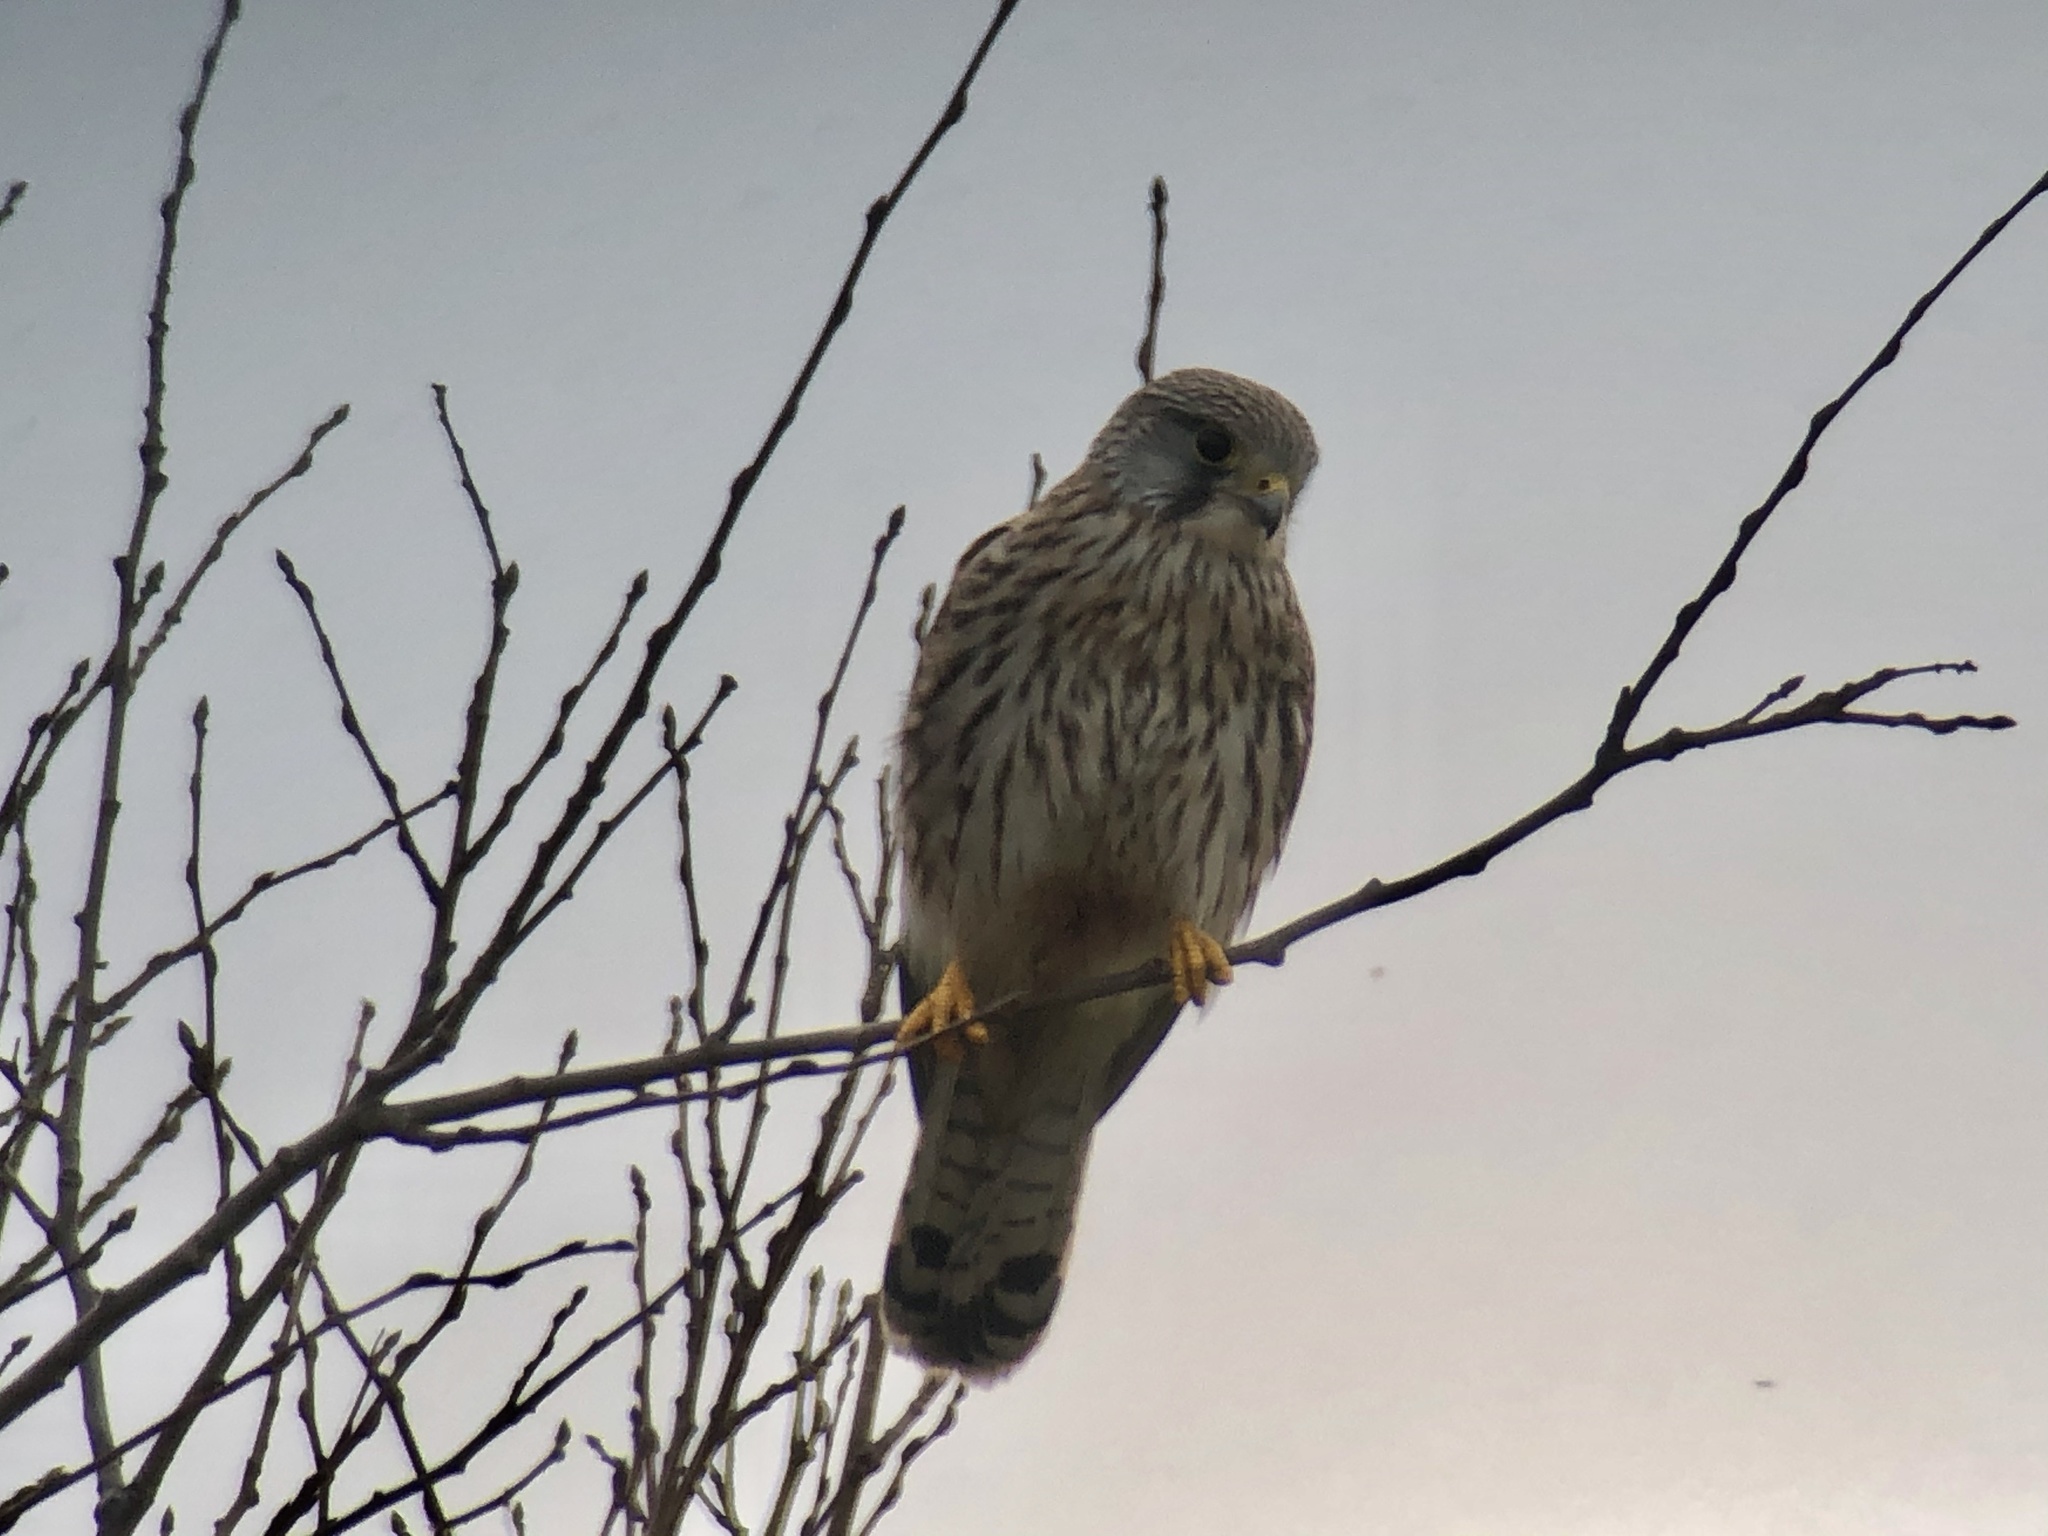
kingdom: Animalia
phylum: Chordata
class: Aves
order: Falconiformes
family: Falconidae
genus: Falco
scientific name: Falco tinnunculus
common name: Common kestrel
